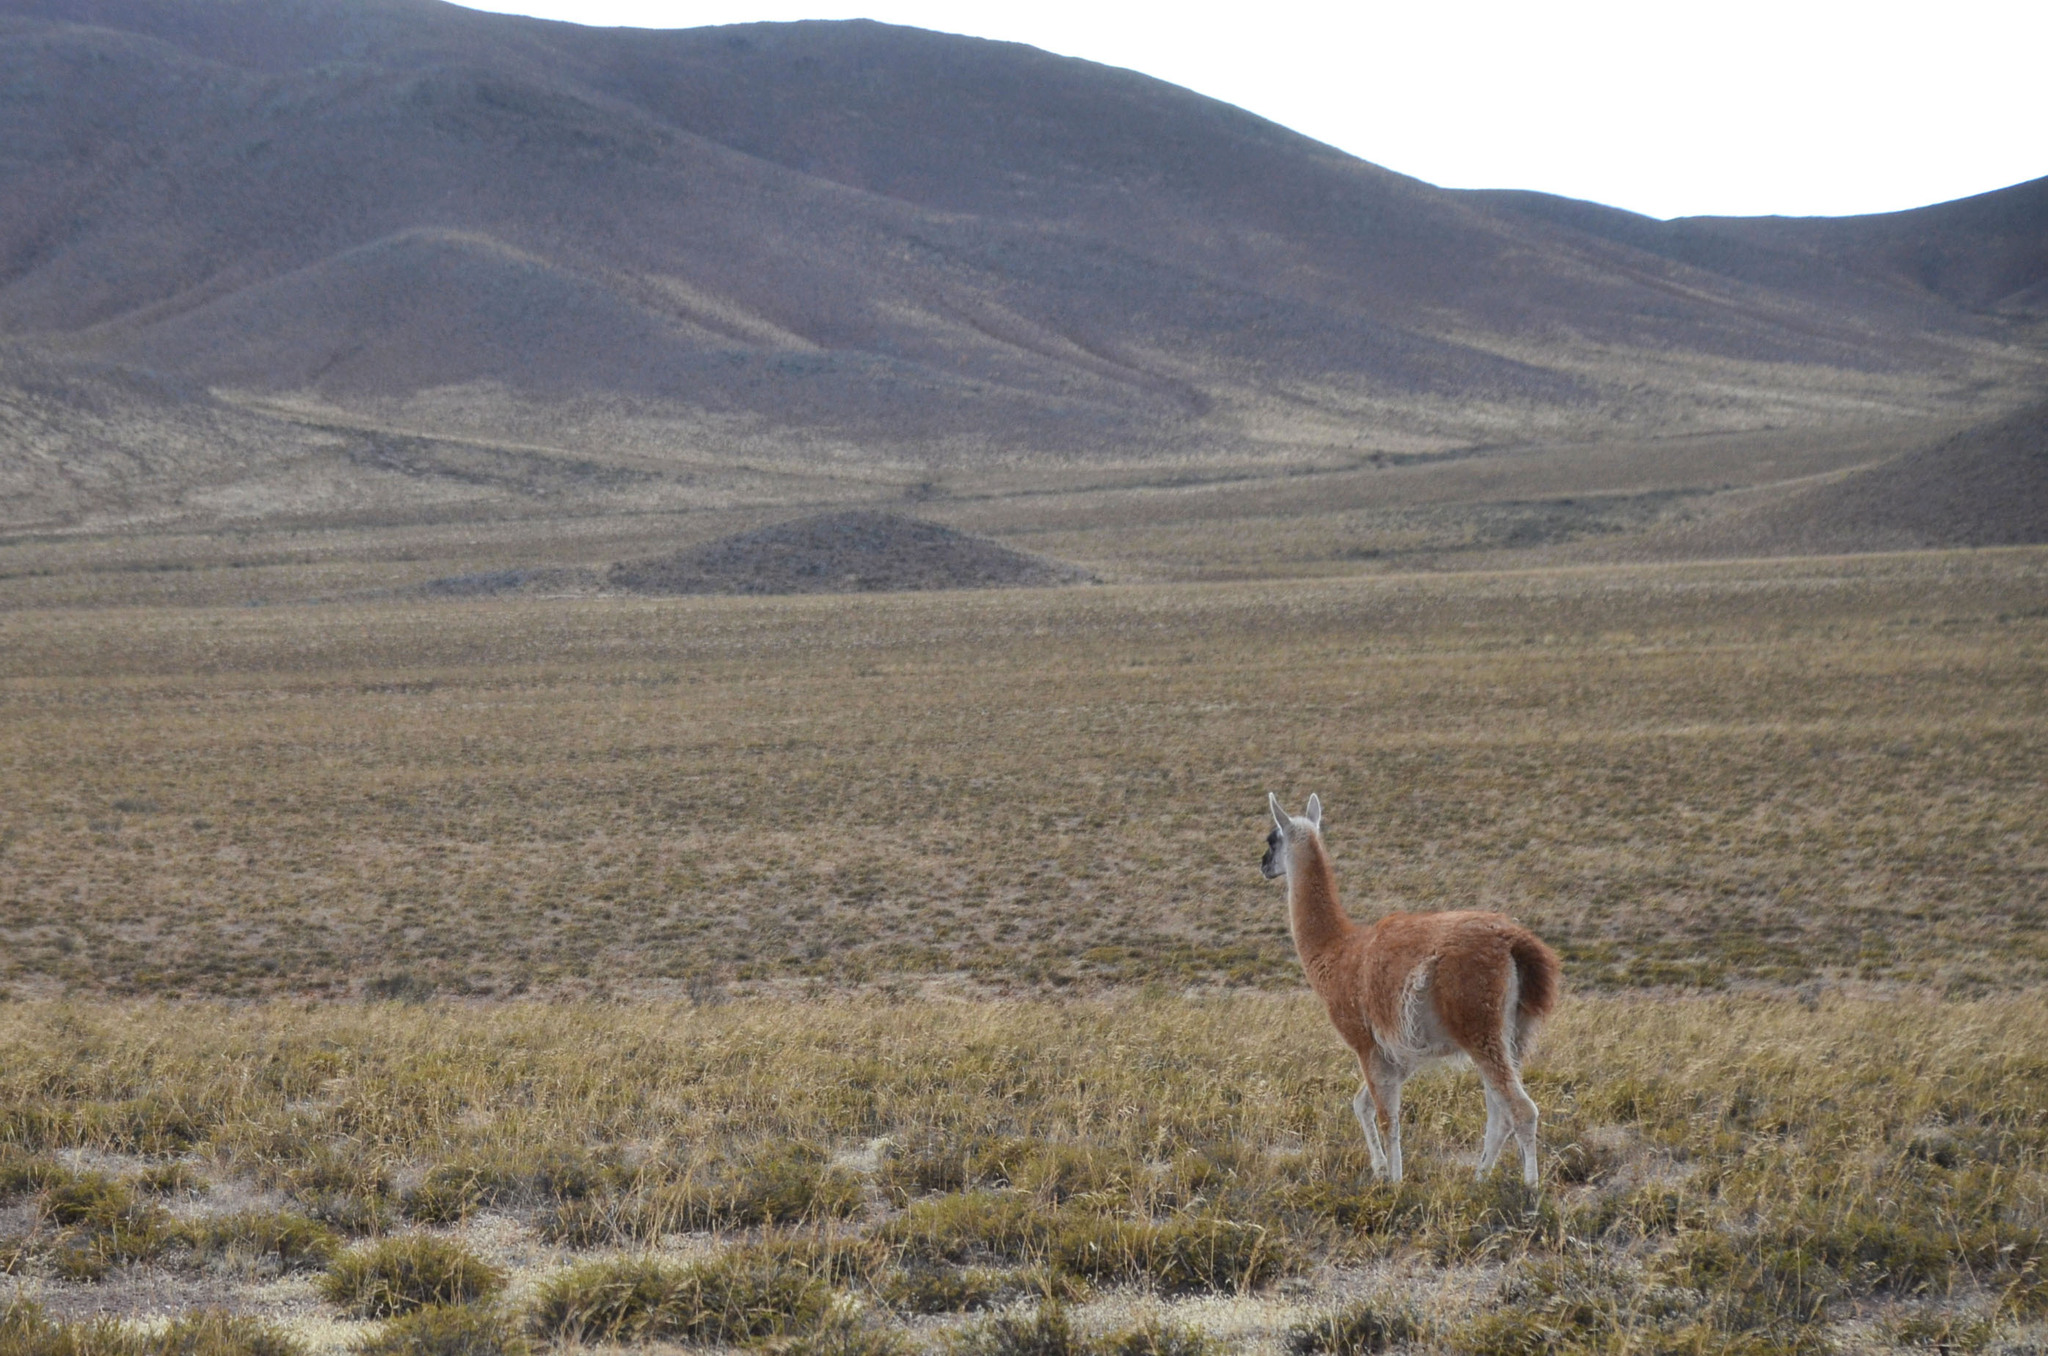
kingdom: Animalia
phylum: Chordata
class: Mammalia
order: Artiodactyla
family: Camelidae
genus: Lama
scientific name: Lama glama
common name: Llama
